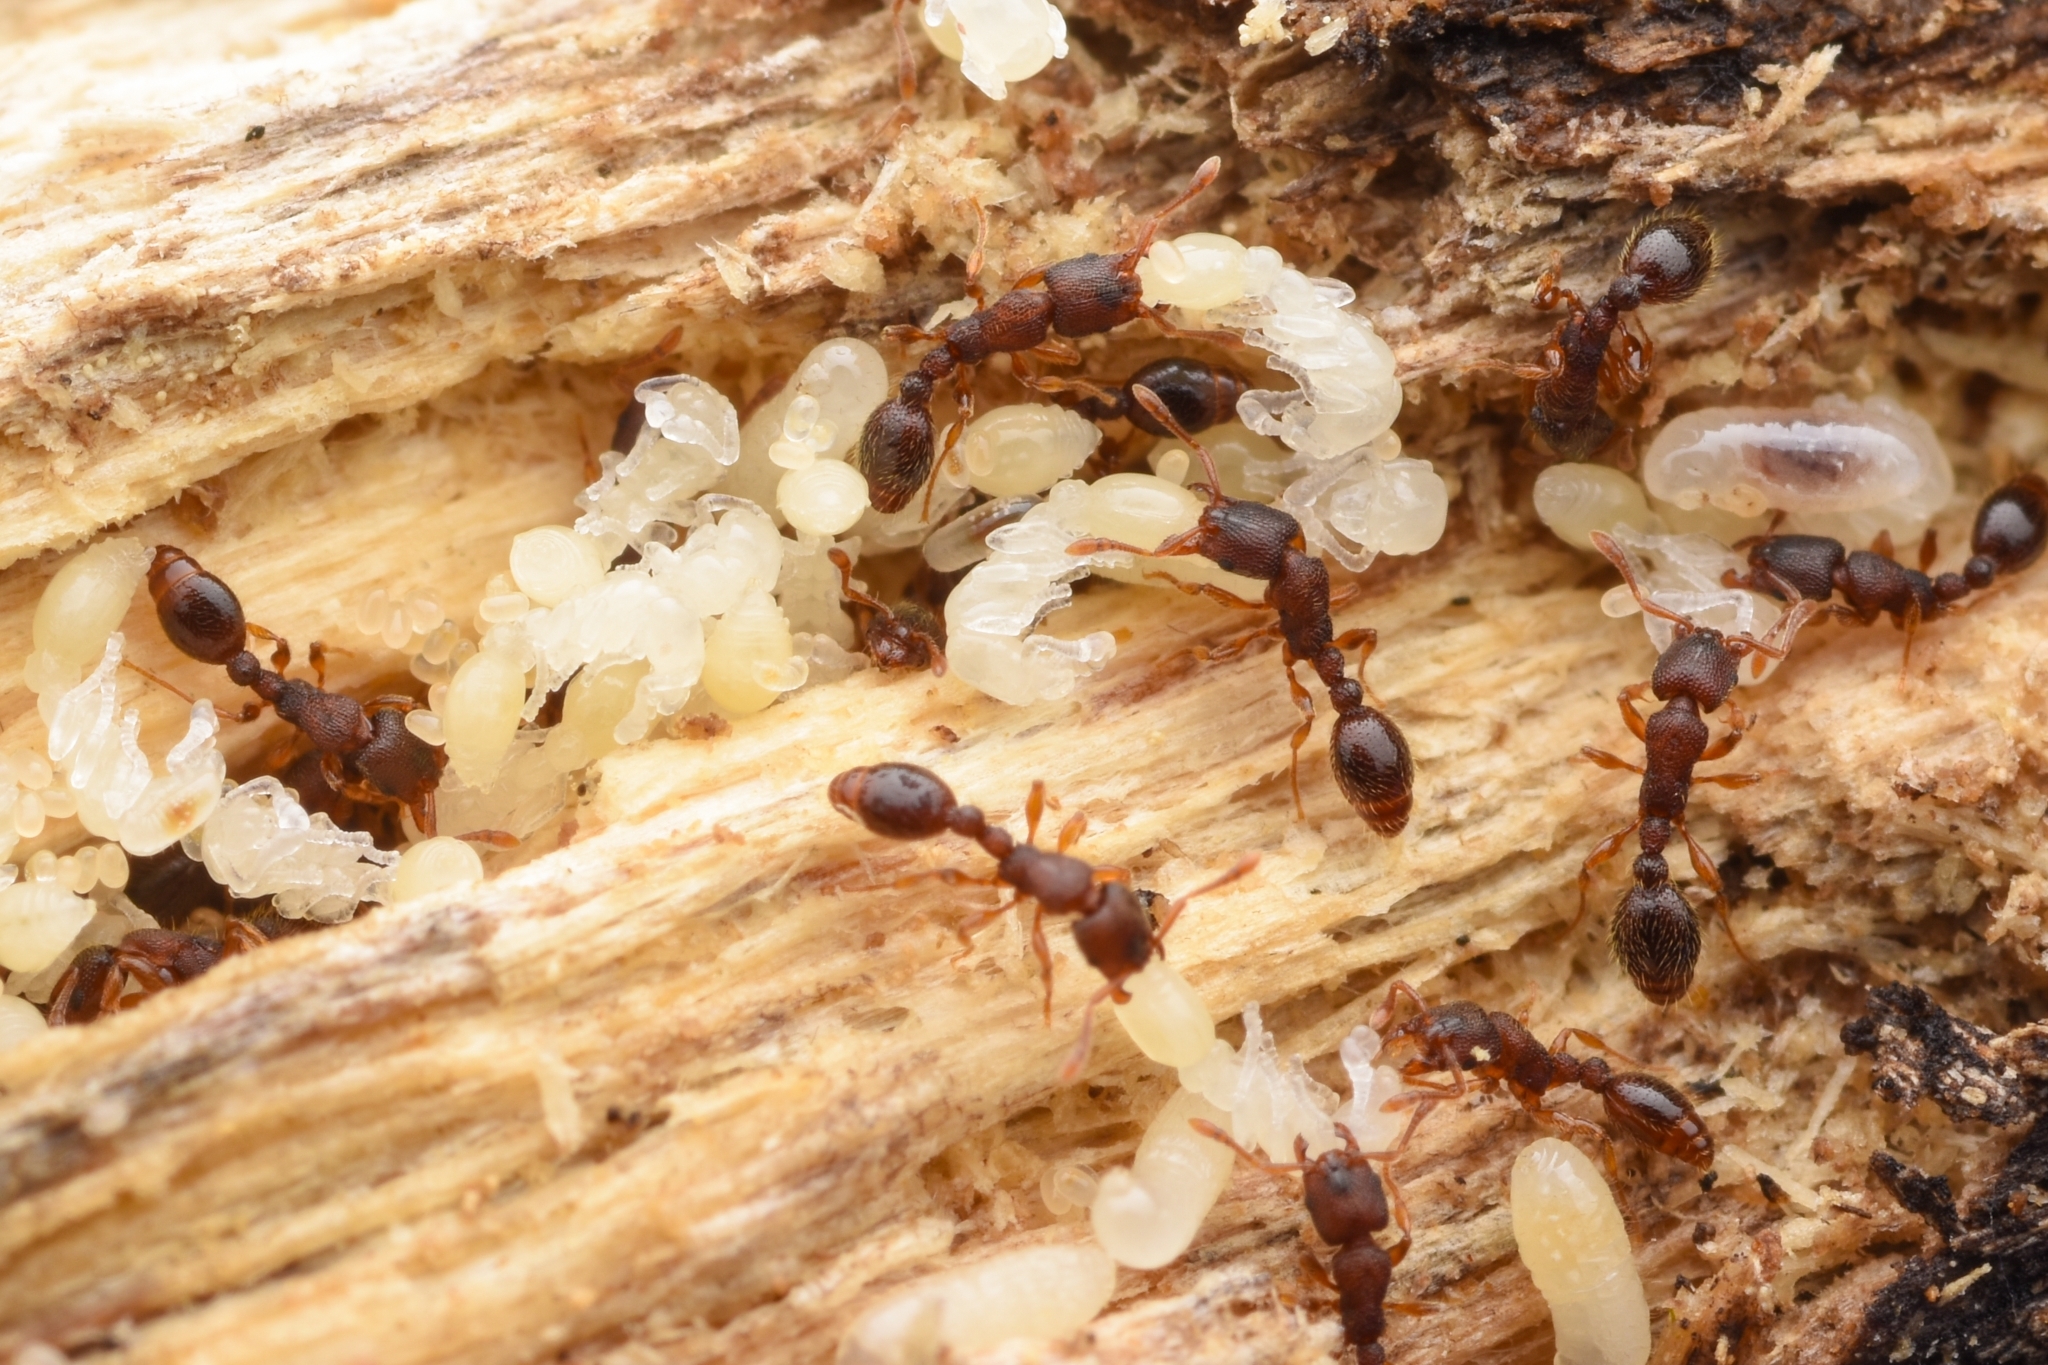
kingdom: Animalia
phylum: Arthropoda
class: Insecta
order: Hymenoptera
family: Formicidae
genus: Vollenhovia
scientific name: Vollenhovia emeryi
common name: Ant
